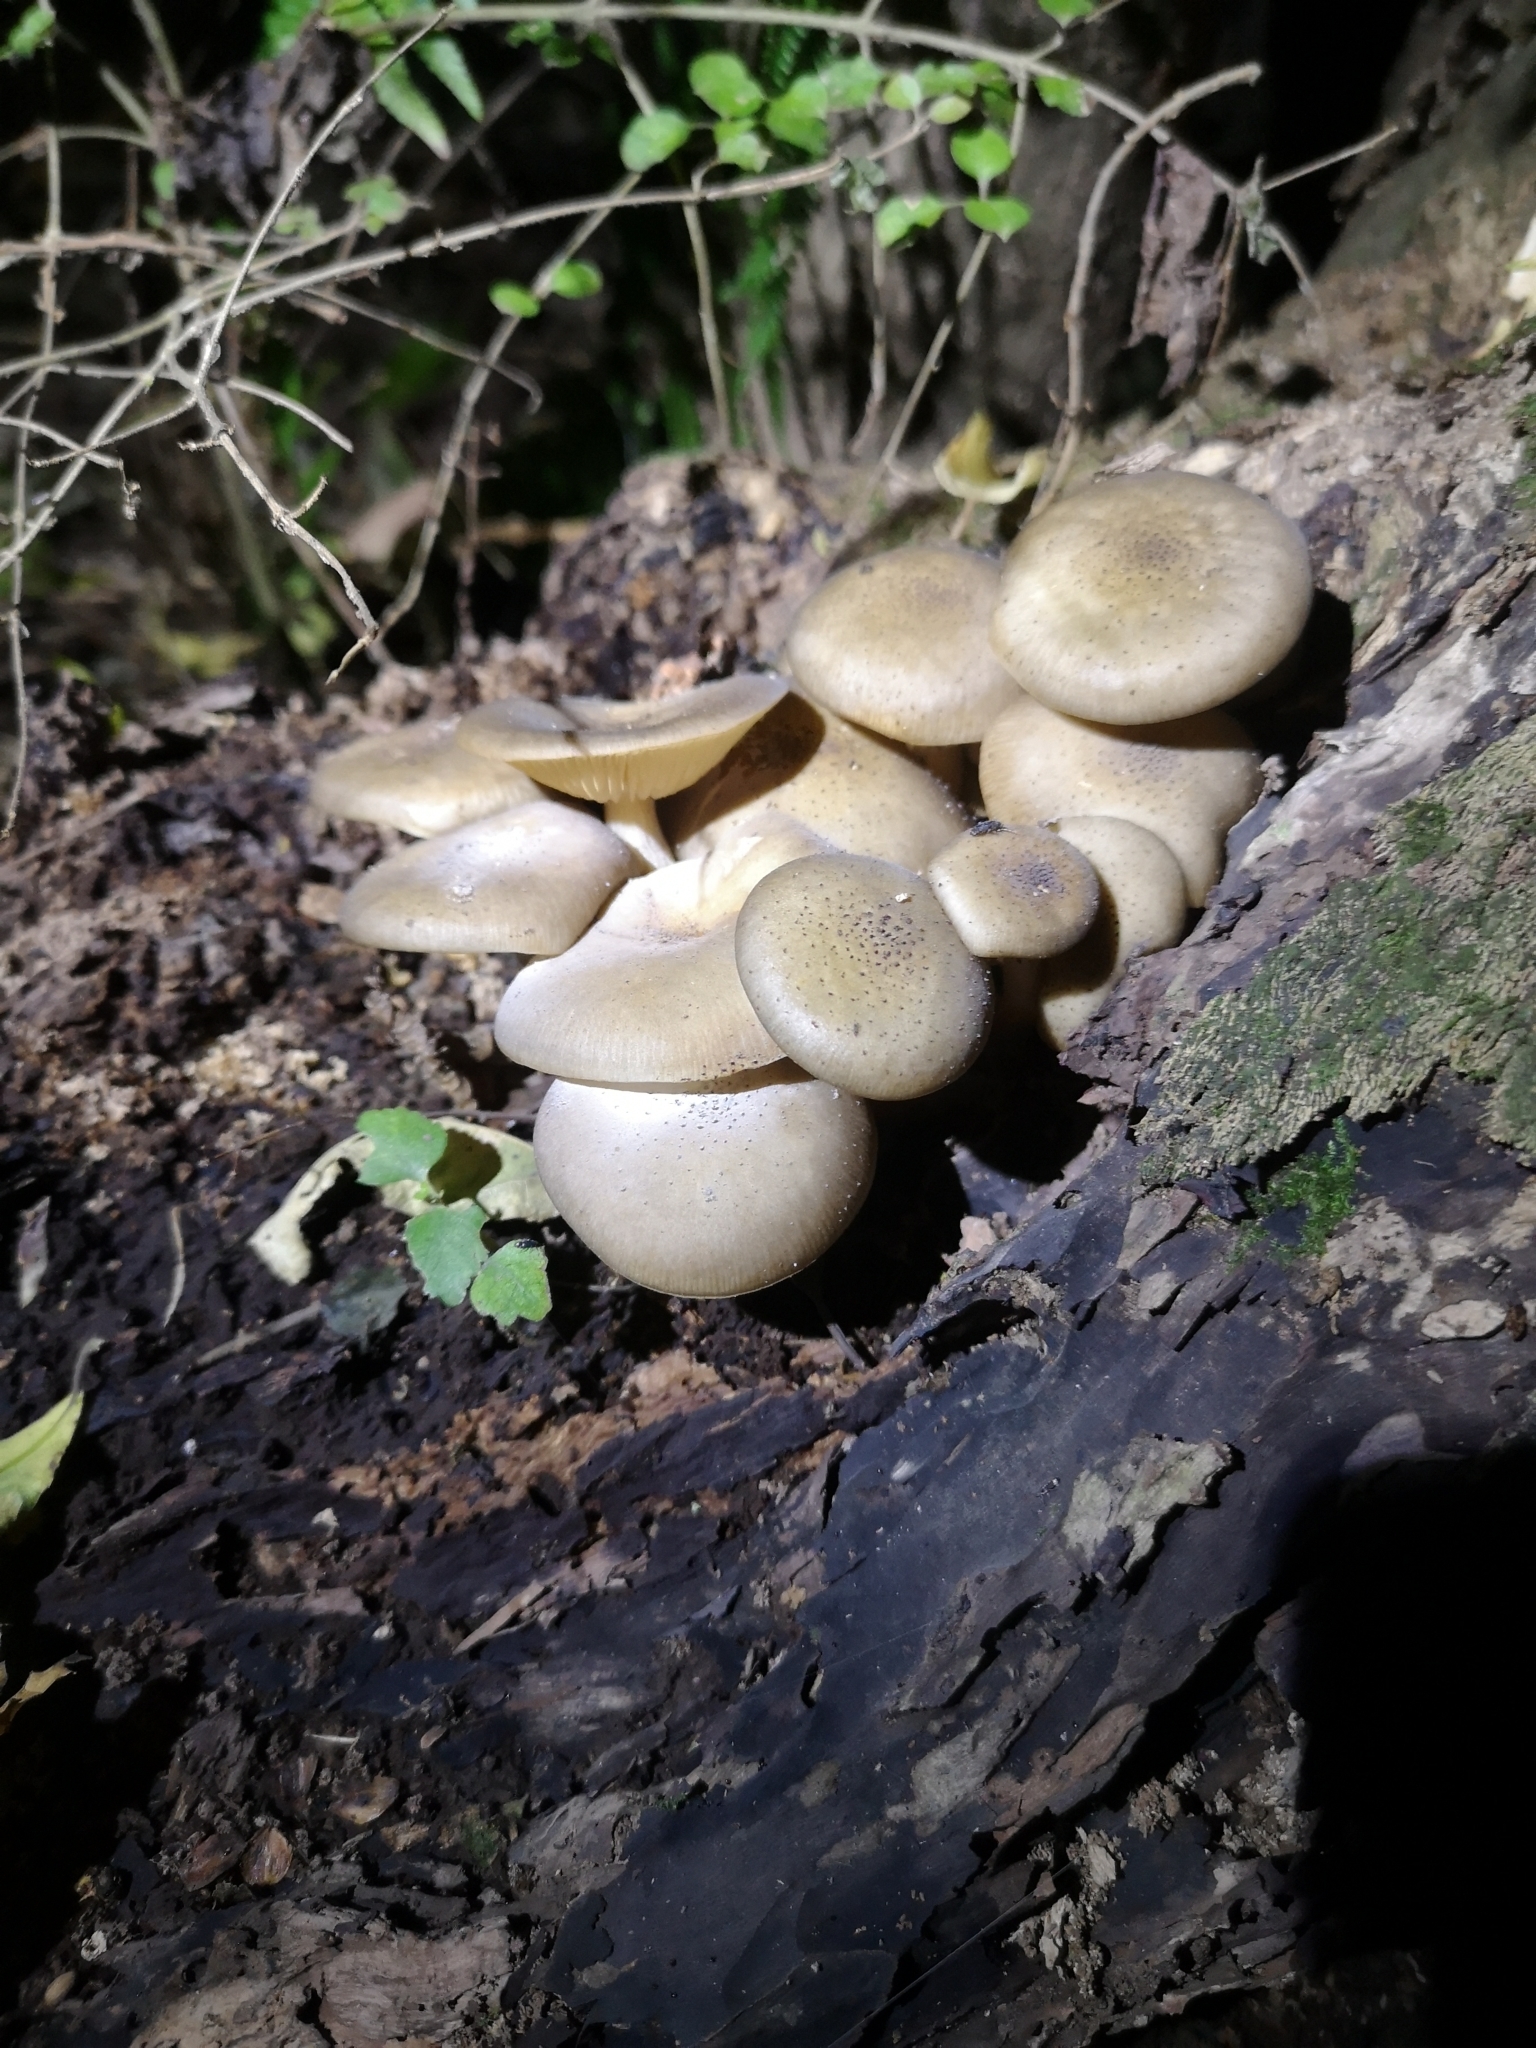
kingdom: Fungi
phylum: Basidiomycota
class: Agaricomycetes
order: Agaricales
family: Physalacriaceae
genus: Armillaria
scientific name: Armillaria novae-zelandiae
